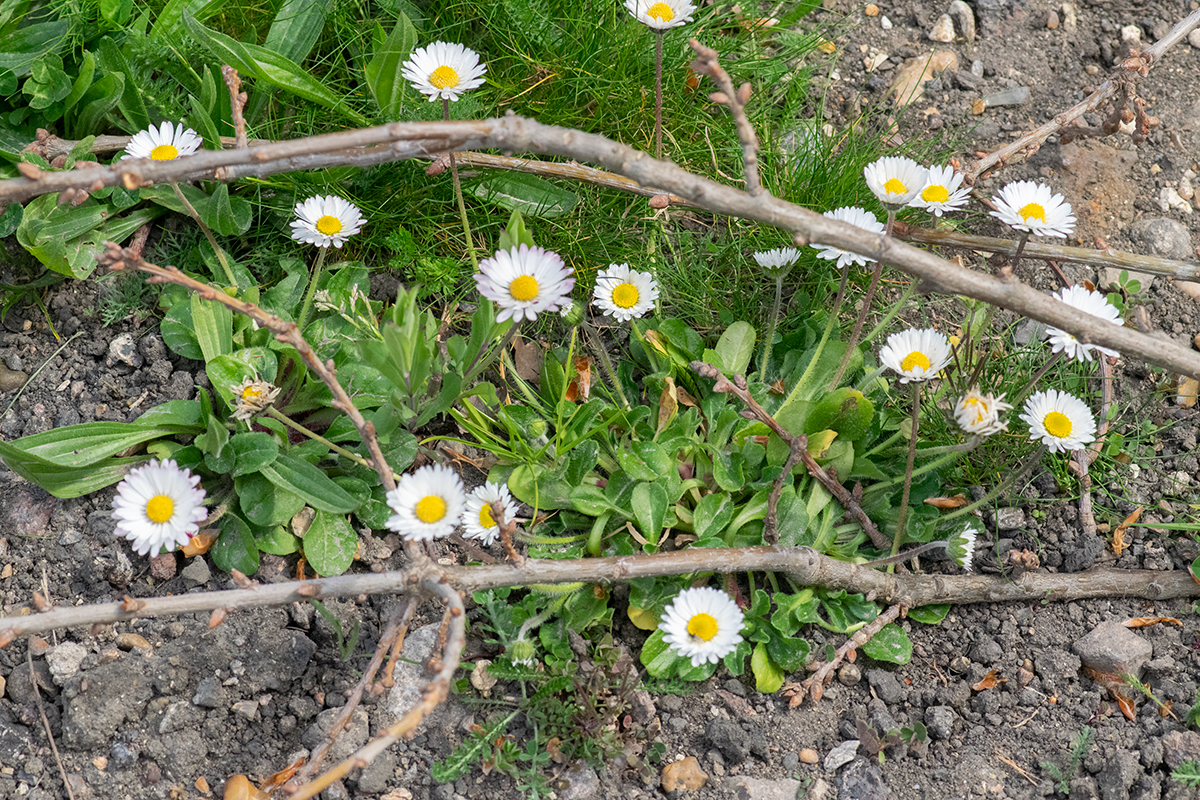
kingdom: Plantae
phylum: Tracheophyta
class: Magnoliopsida
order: Asterales
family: Asteraceae
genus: Bellis
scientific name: Bellis perennis
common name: Lawndaisy
